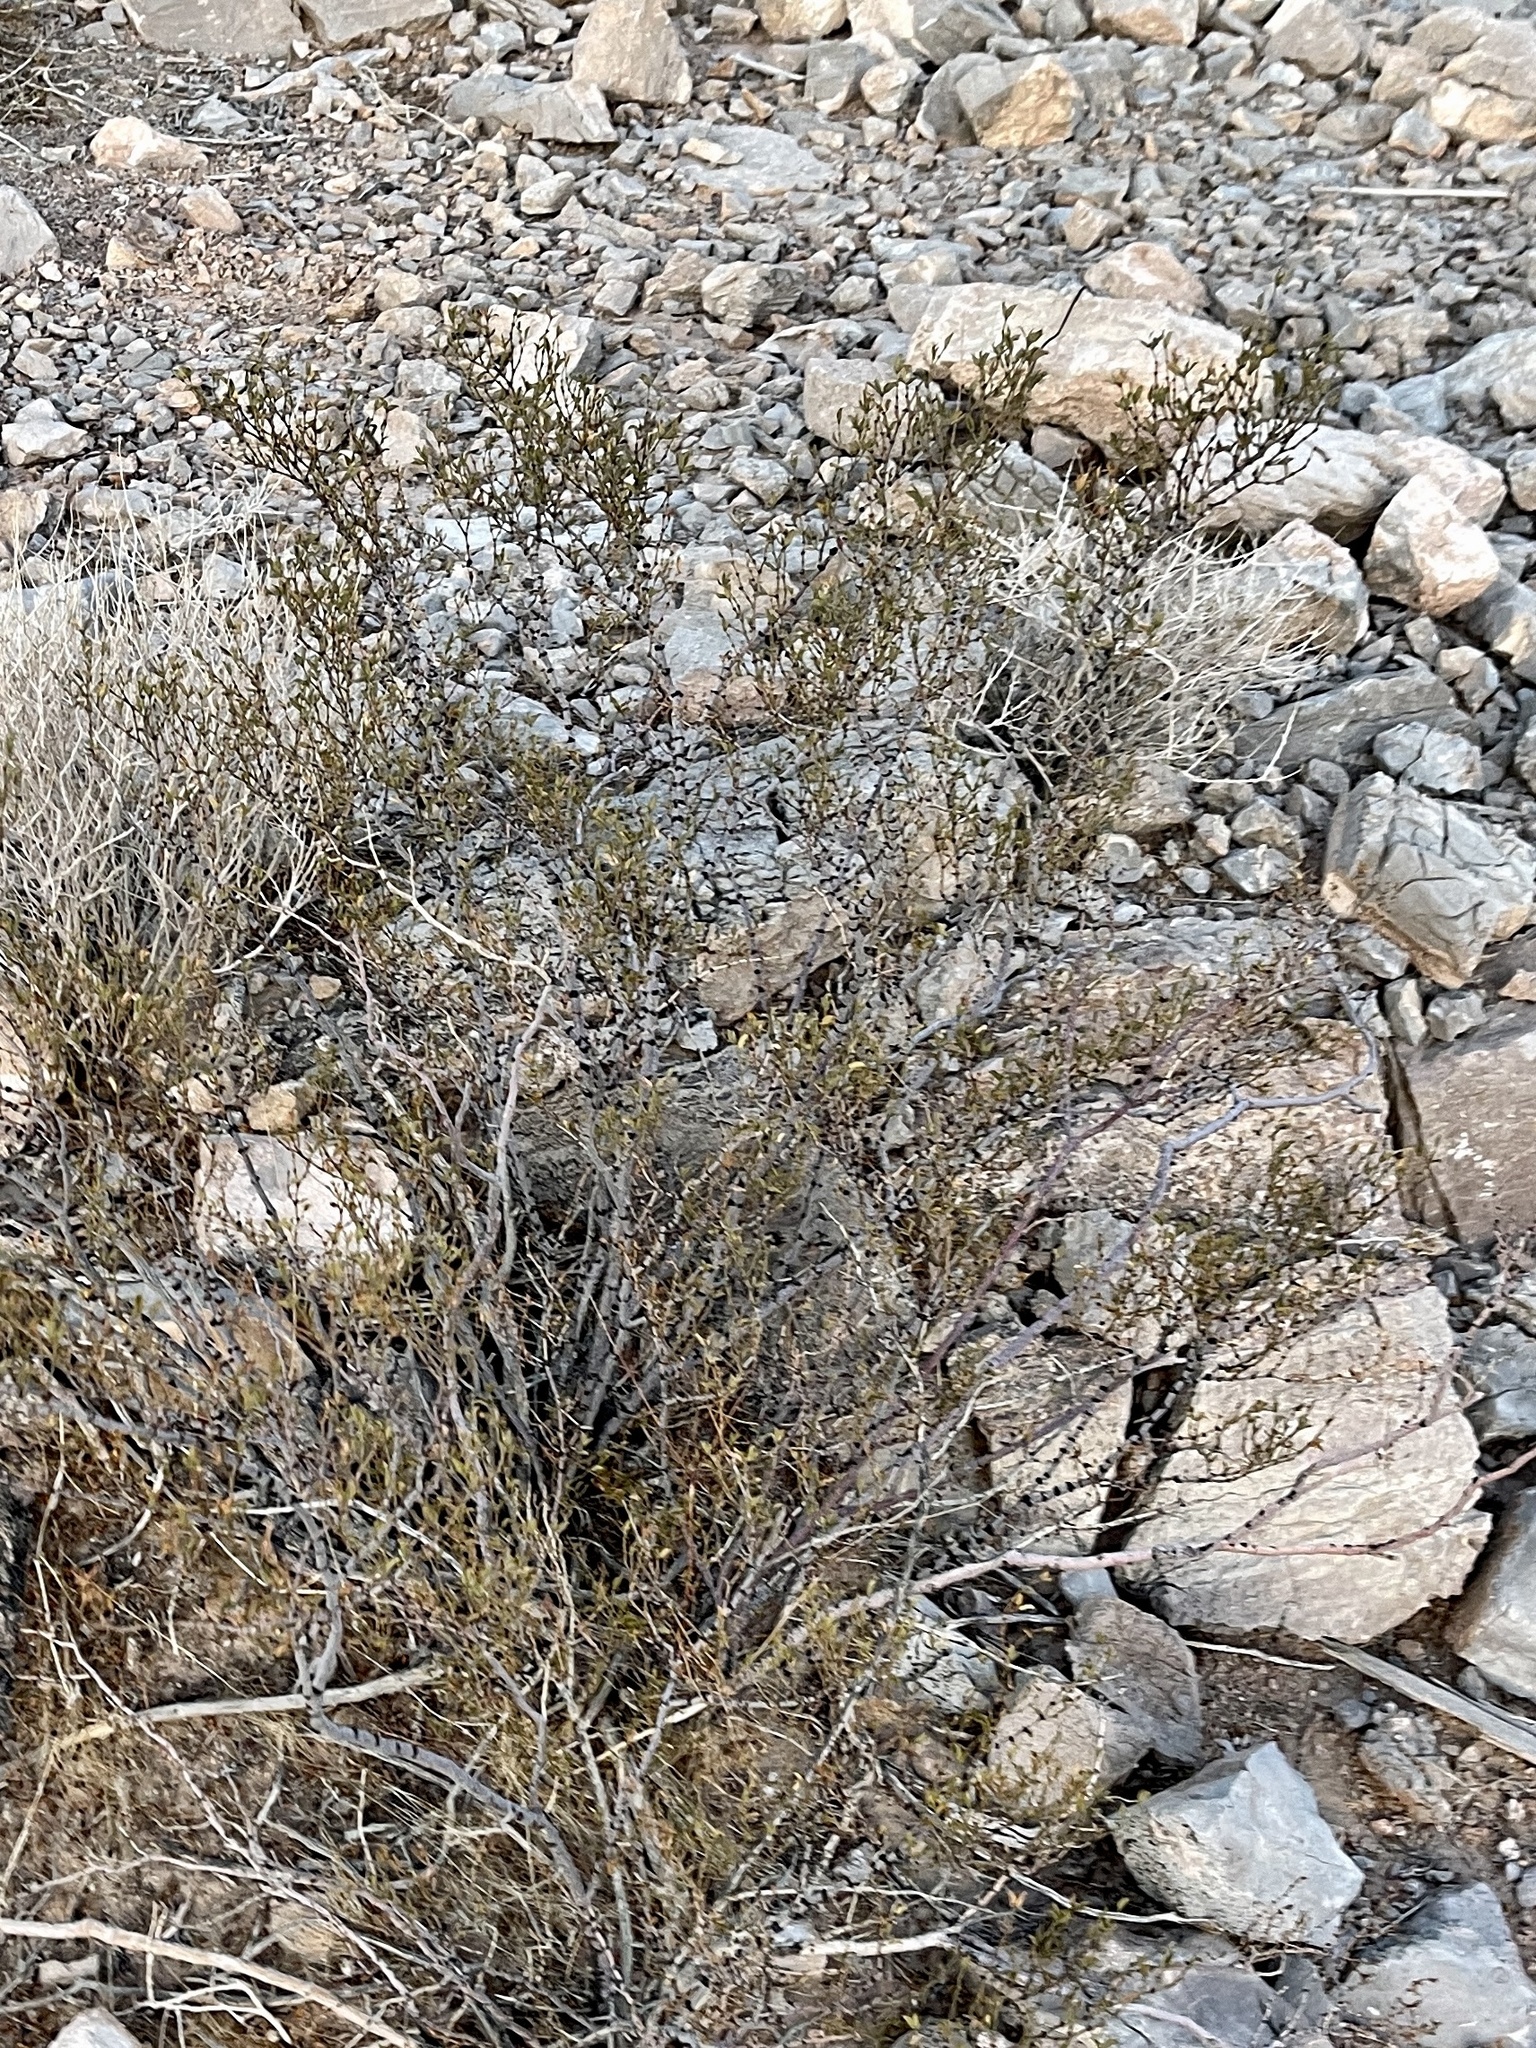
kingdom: Plantae
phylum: Tracheophyta
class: Magnoliopsida
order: Zygophyllales
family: Zygophyllaceae
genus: Larrea
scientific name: Larrea tridentata
